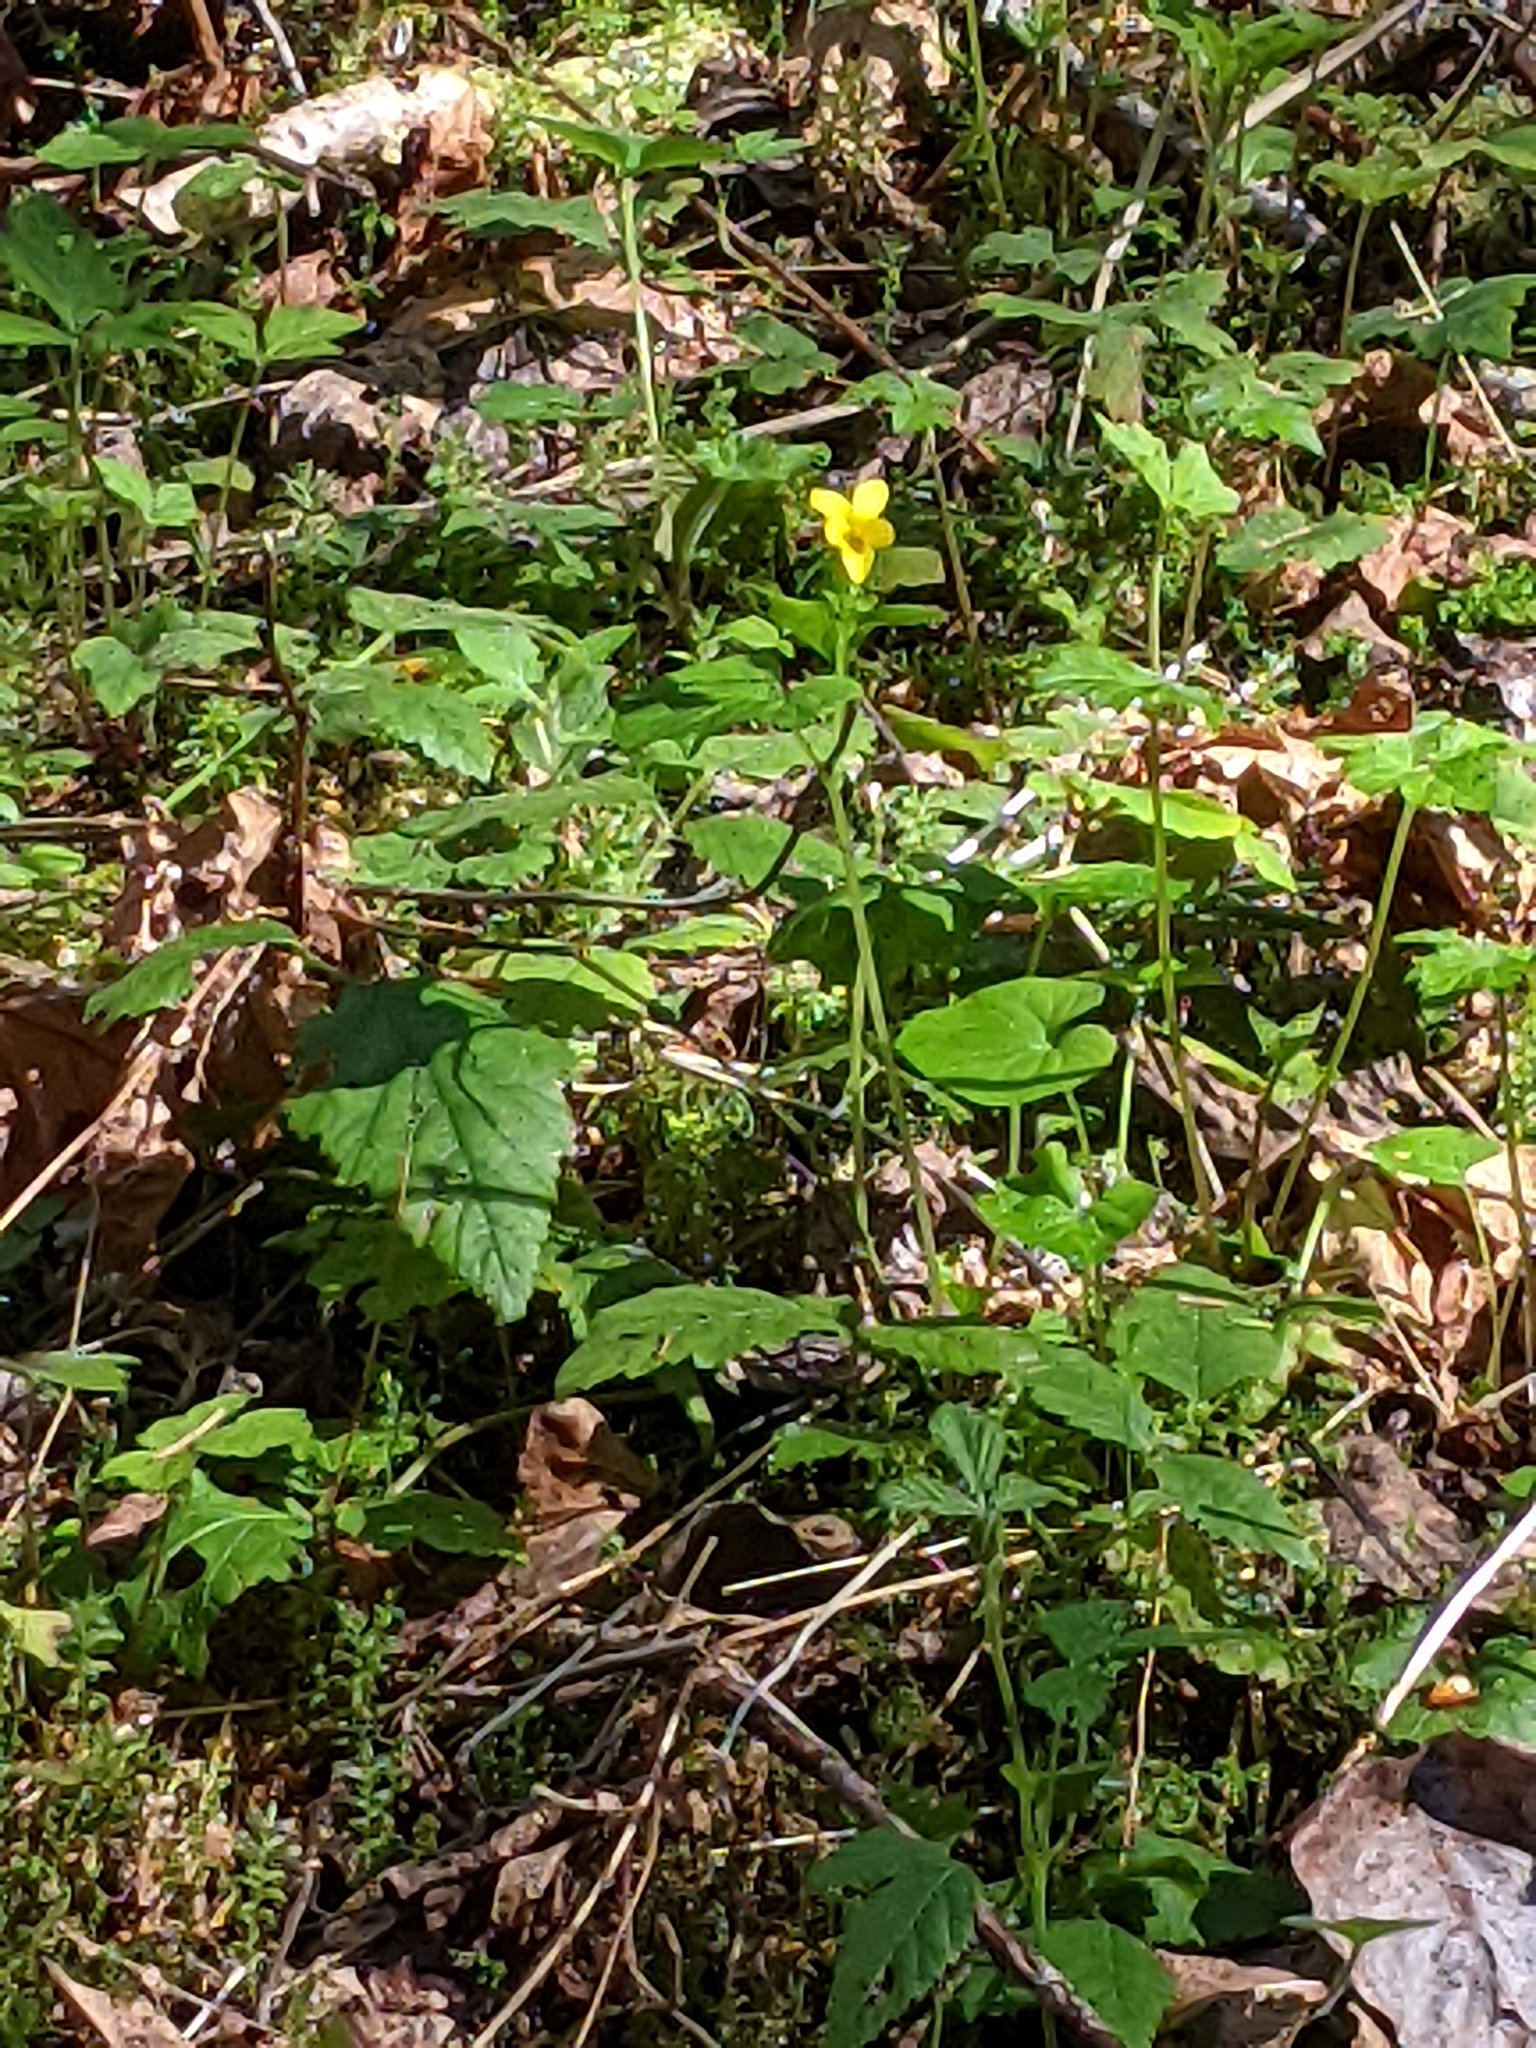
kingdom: Plantae
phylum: Tracheophyta
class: Magnoliopsida
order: Malpighiales
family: Violaceae
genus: Viola
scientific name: Viola glabella
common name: Stream violet
